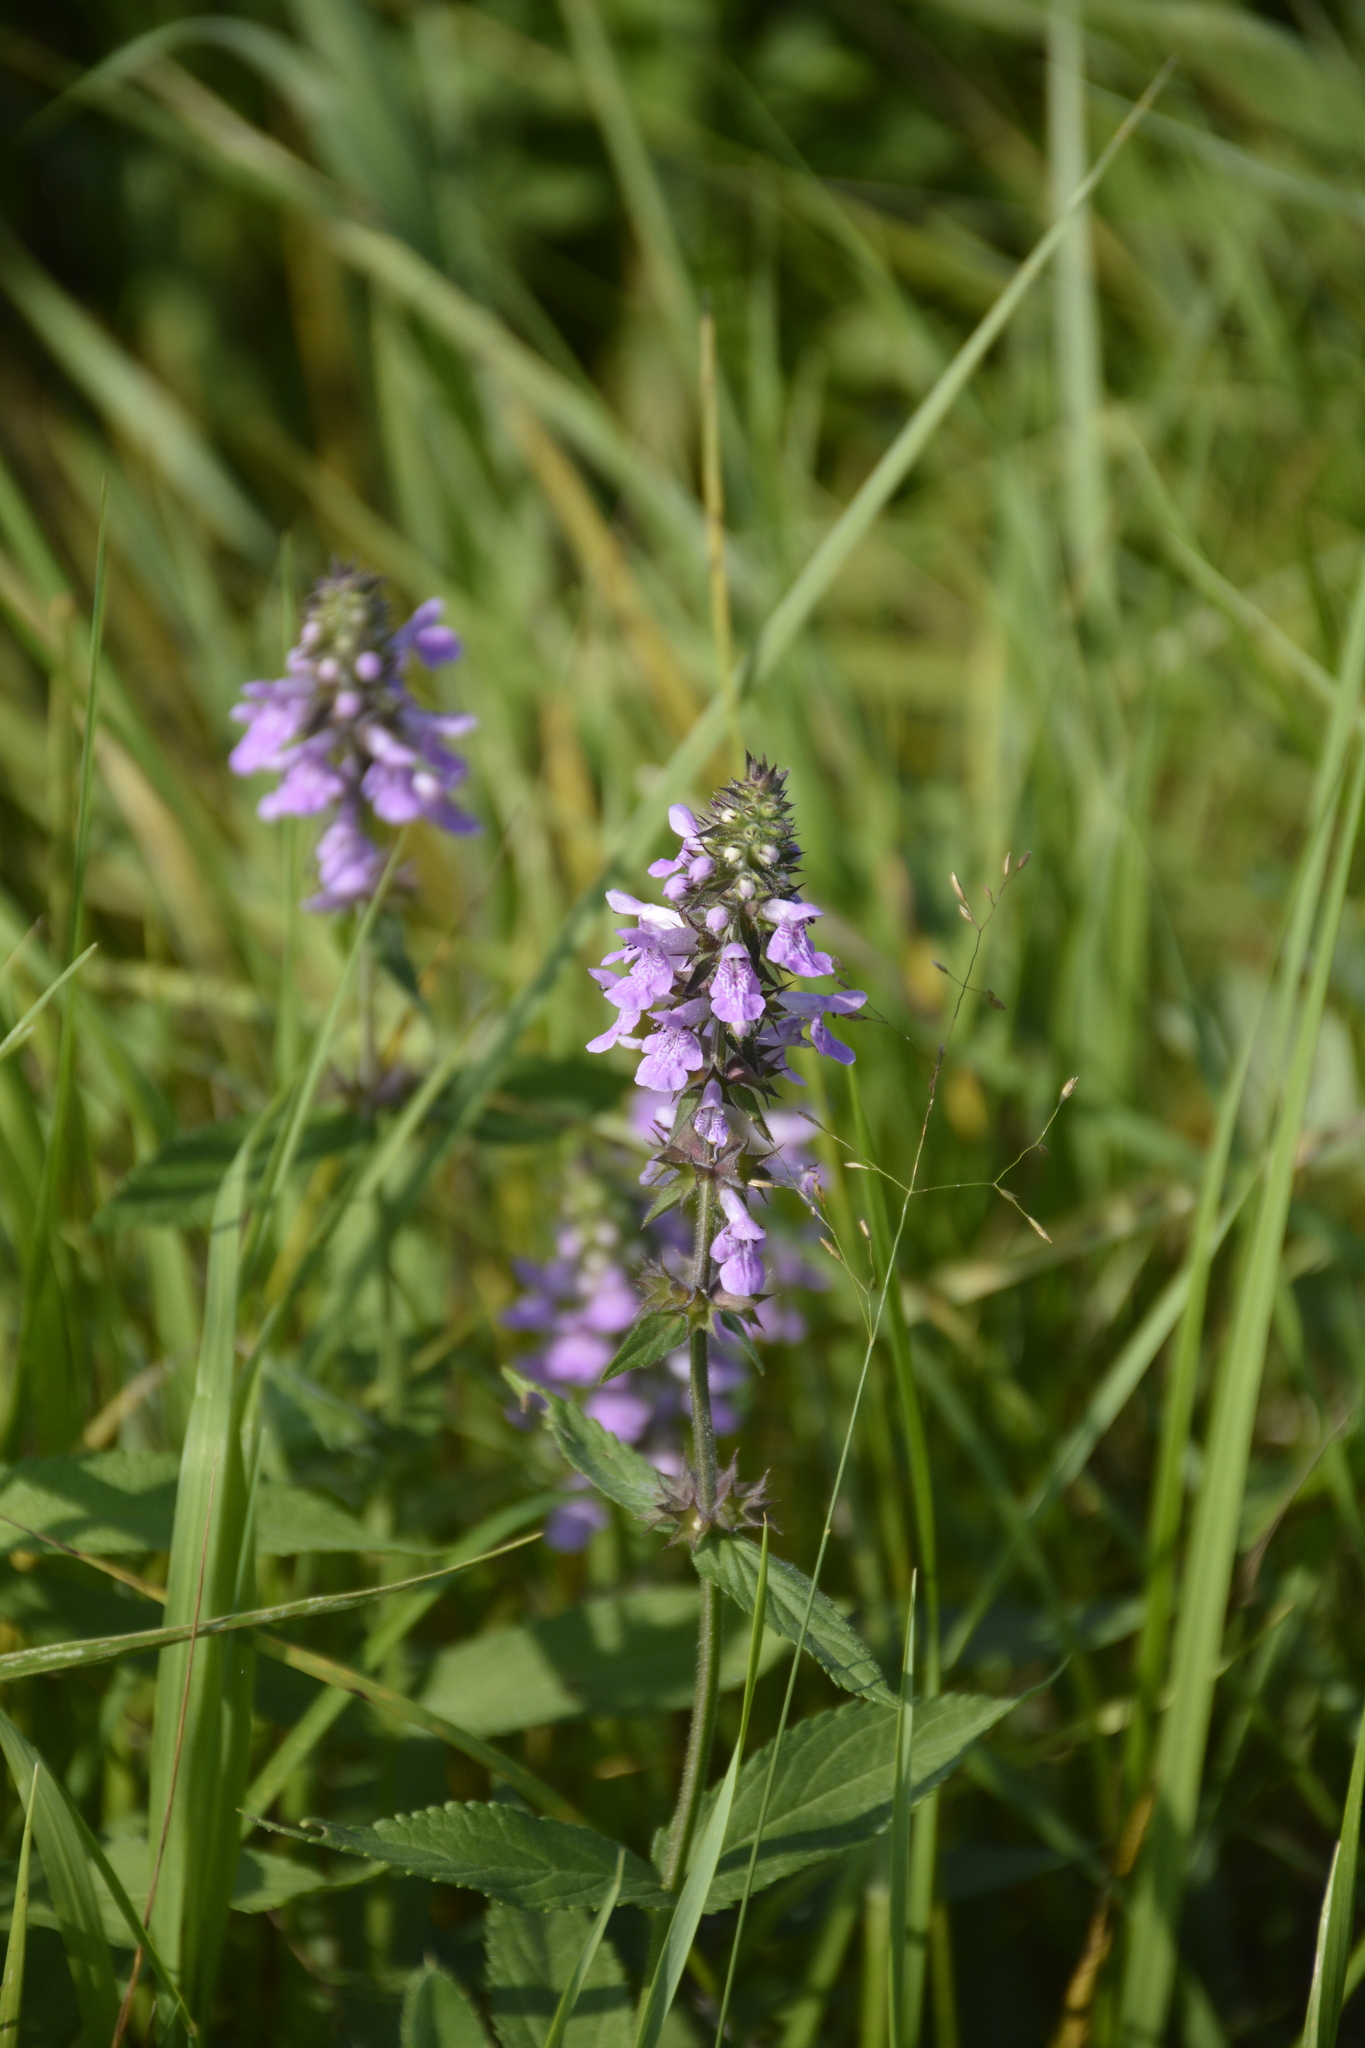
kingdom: Plantae
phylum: Tracheophyta
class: Magnoliopsida
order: Lamiales
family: Lamiaceae
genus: Stachys
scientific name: Stachys palustris
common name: Marsh woundwort
